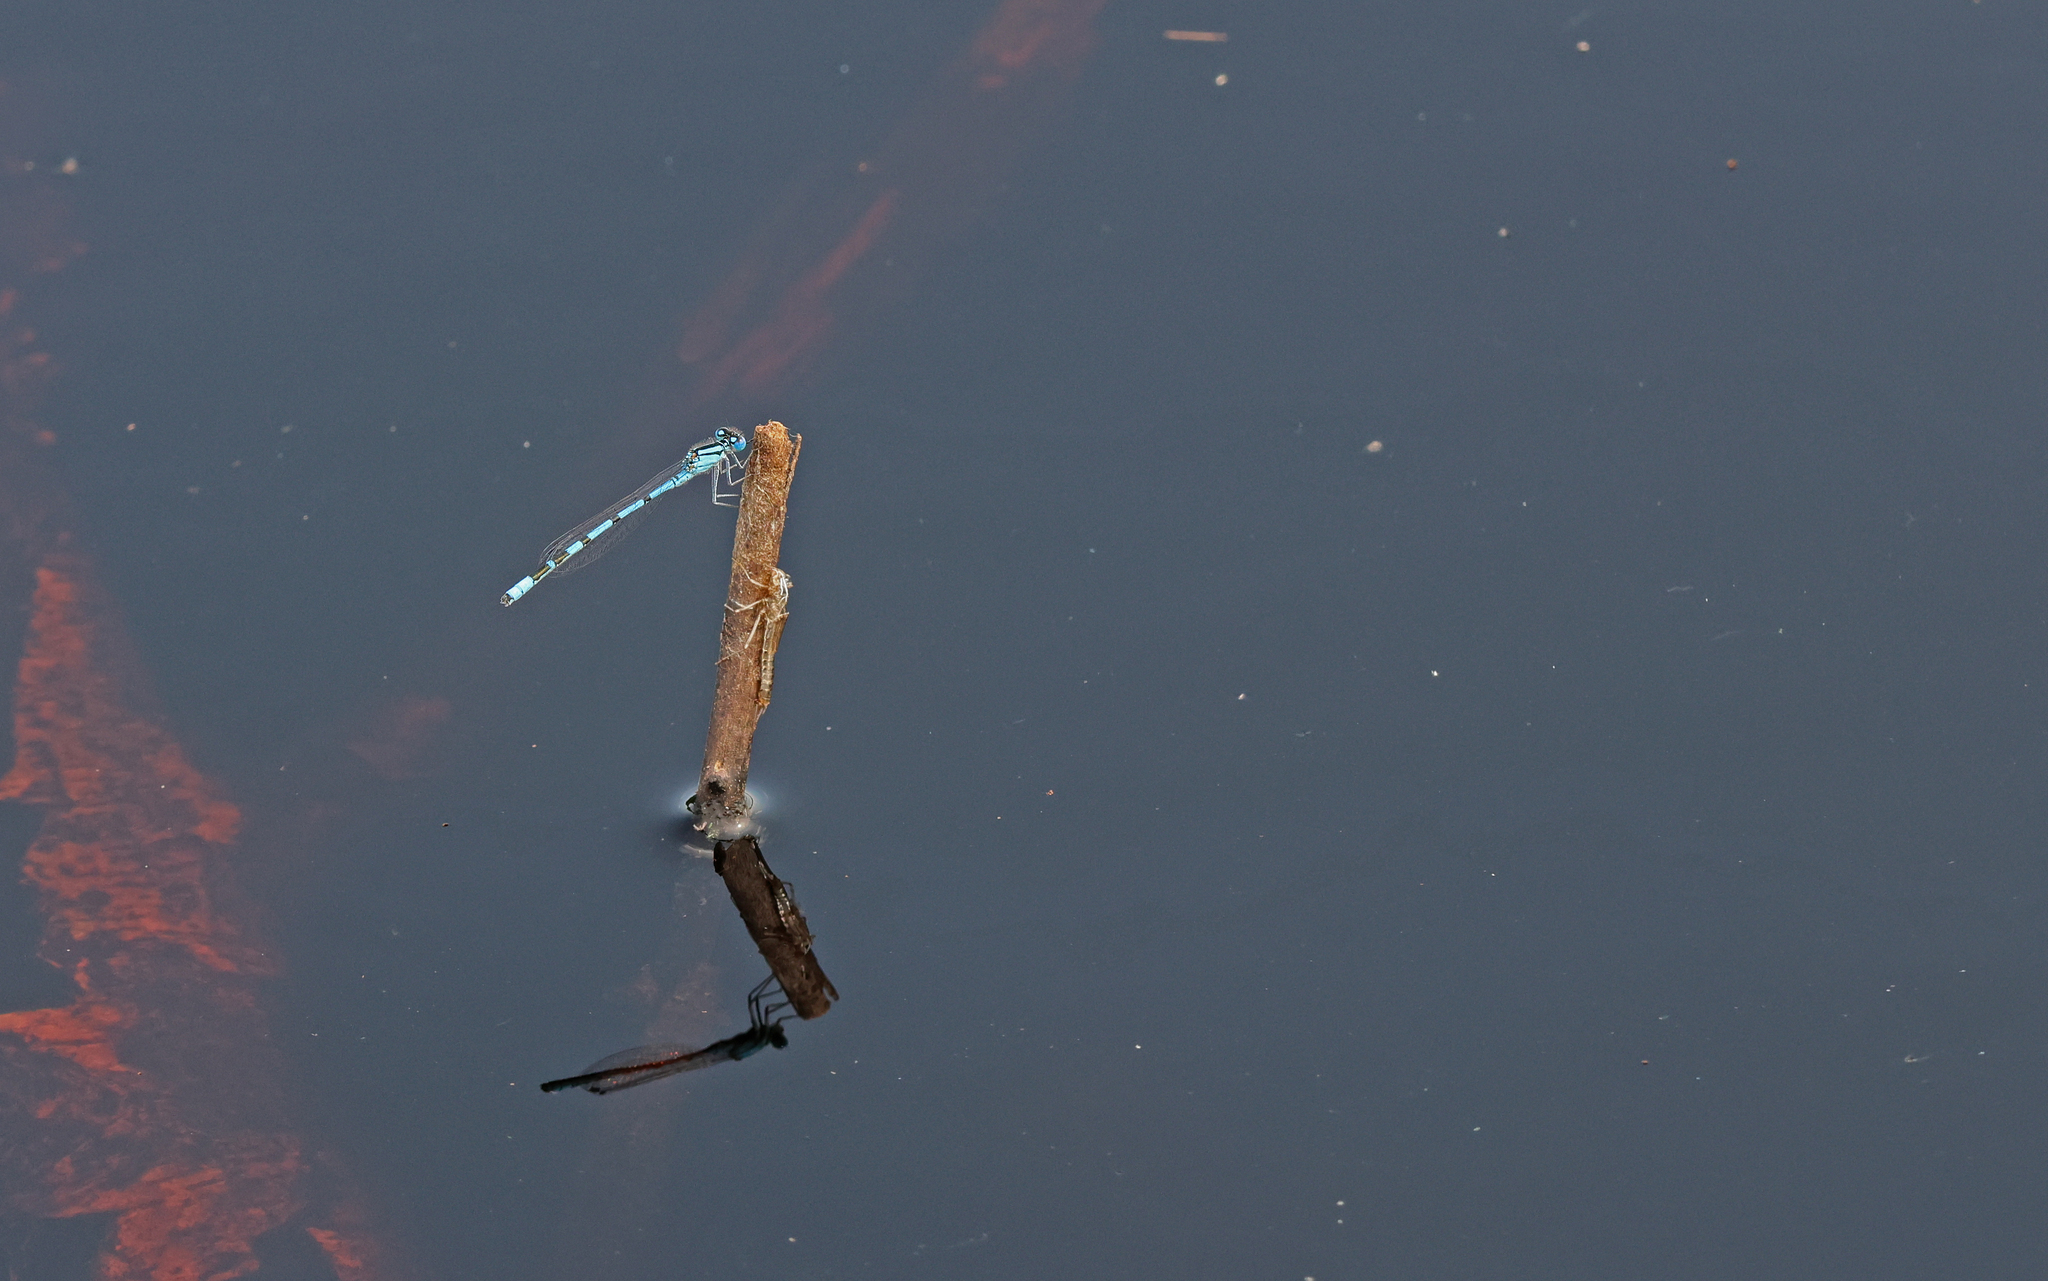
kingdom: Animalia
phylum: Arthropoda
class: Insecta
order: Odonata
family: Coenagrionidae
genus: Enallagma
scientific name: Enallagma cyathigerum
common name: Common blue damselfly
